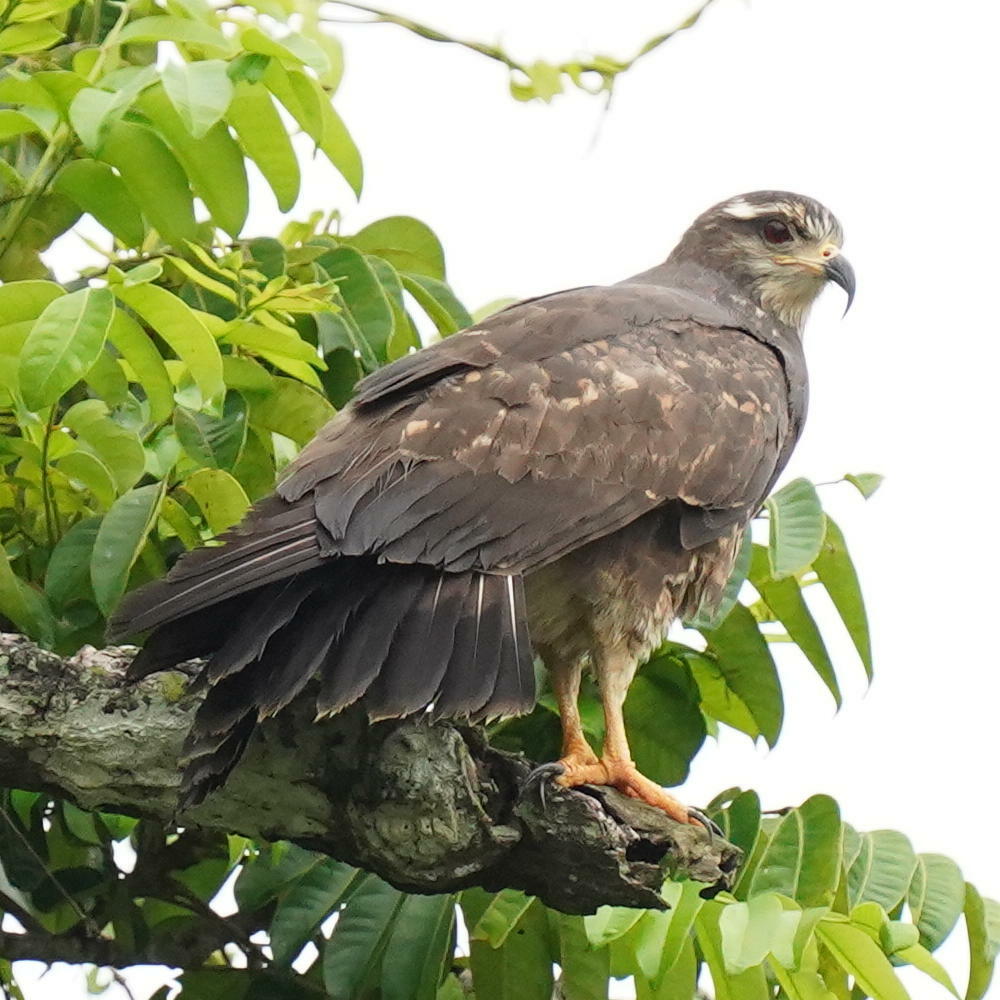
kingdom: Animalia
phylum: Chordata
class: Aves
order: Accipitriformes
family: Accipitridae
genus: Rostrhamus
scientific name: Rostrhamus sociabilis
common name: Snail kite
